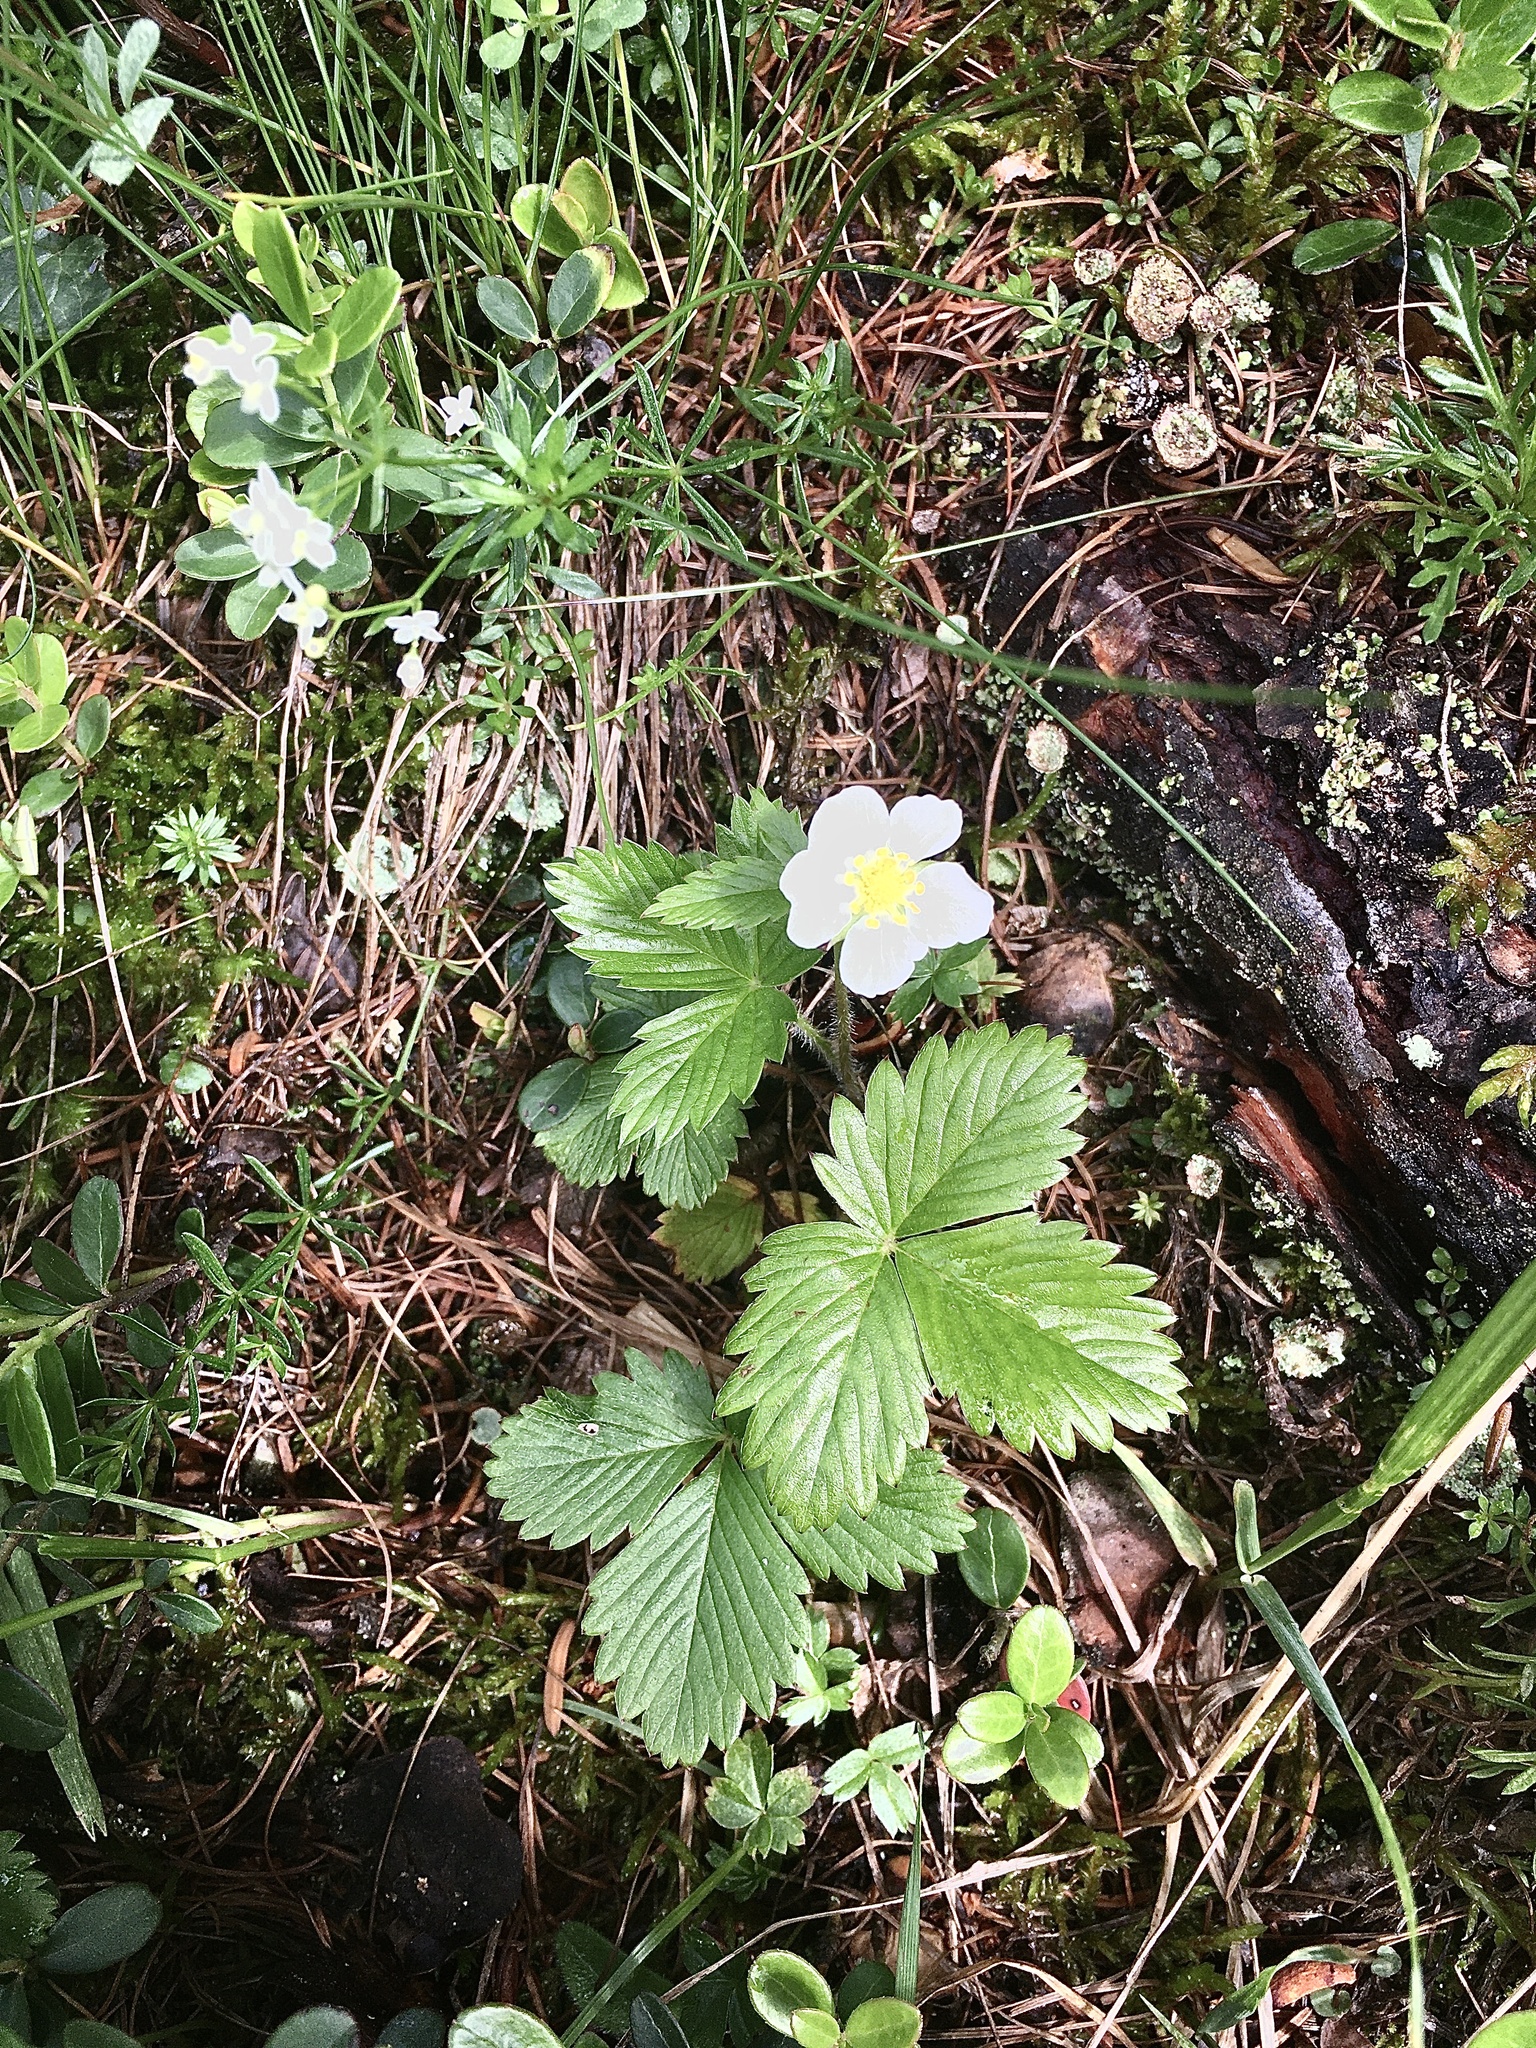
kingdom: Plantae
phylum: Tracheophyta
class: Magnoliopsida
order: Rosales
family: Rosaceae
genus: Fragaria
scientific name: Fragaria vesca
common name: Wild strawberry
